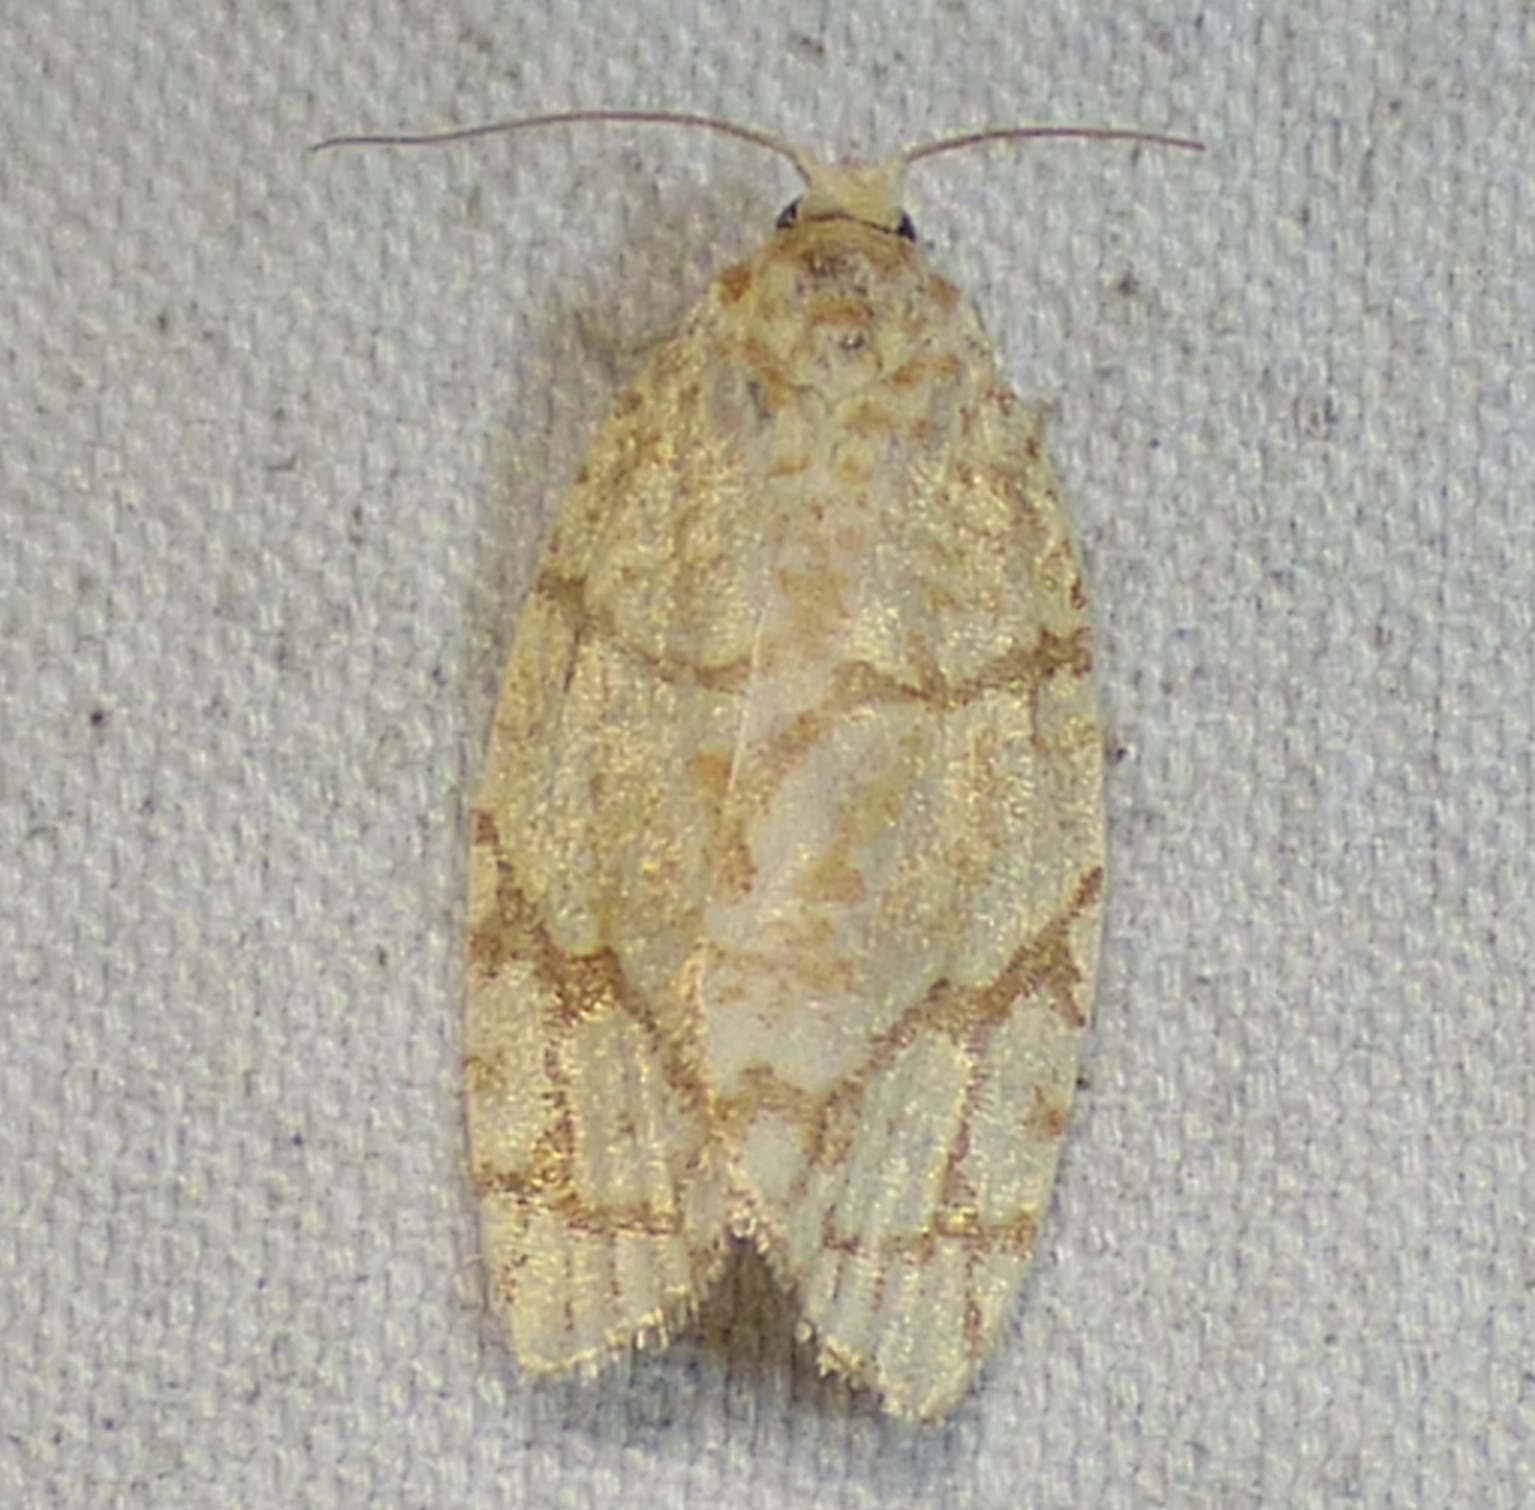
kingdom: Animalia
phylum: Arthropoda
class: Insecta
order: Lepidoptera
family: Tortricidae
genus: Argyrotaenia
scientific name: Argyrotaenia quercifoliana
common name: Yellow-winged oak leafroller moth
